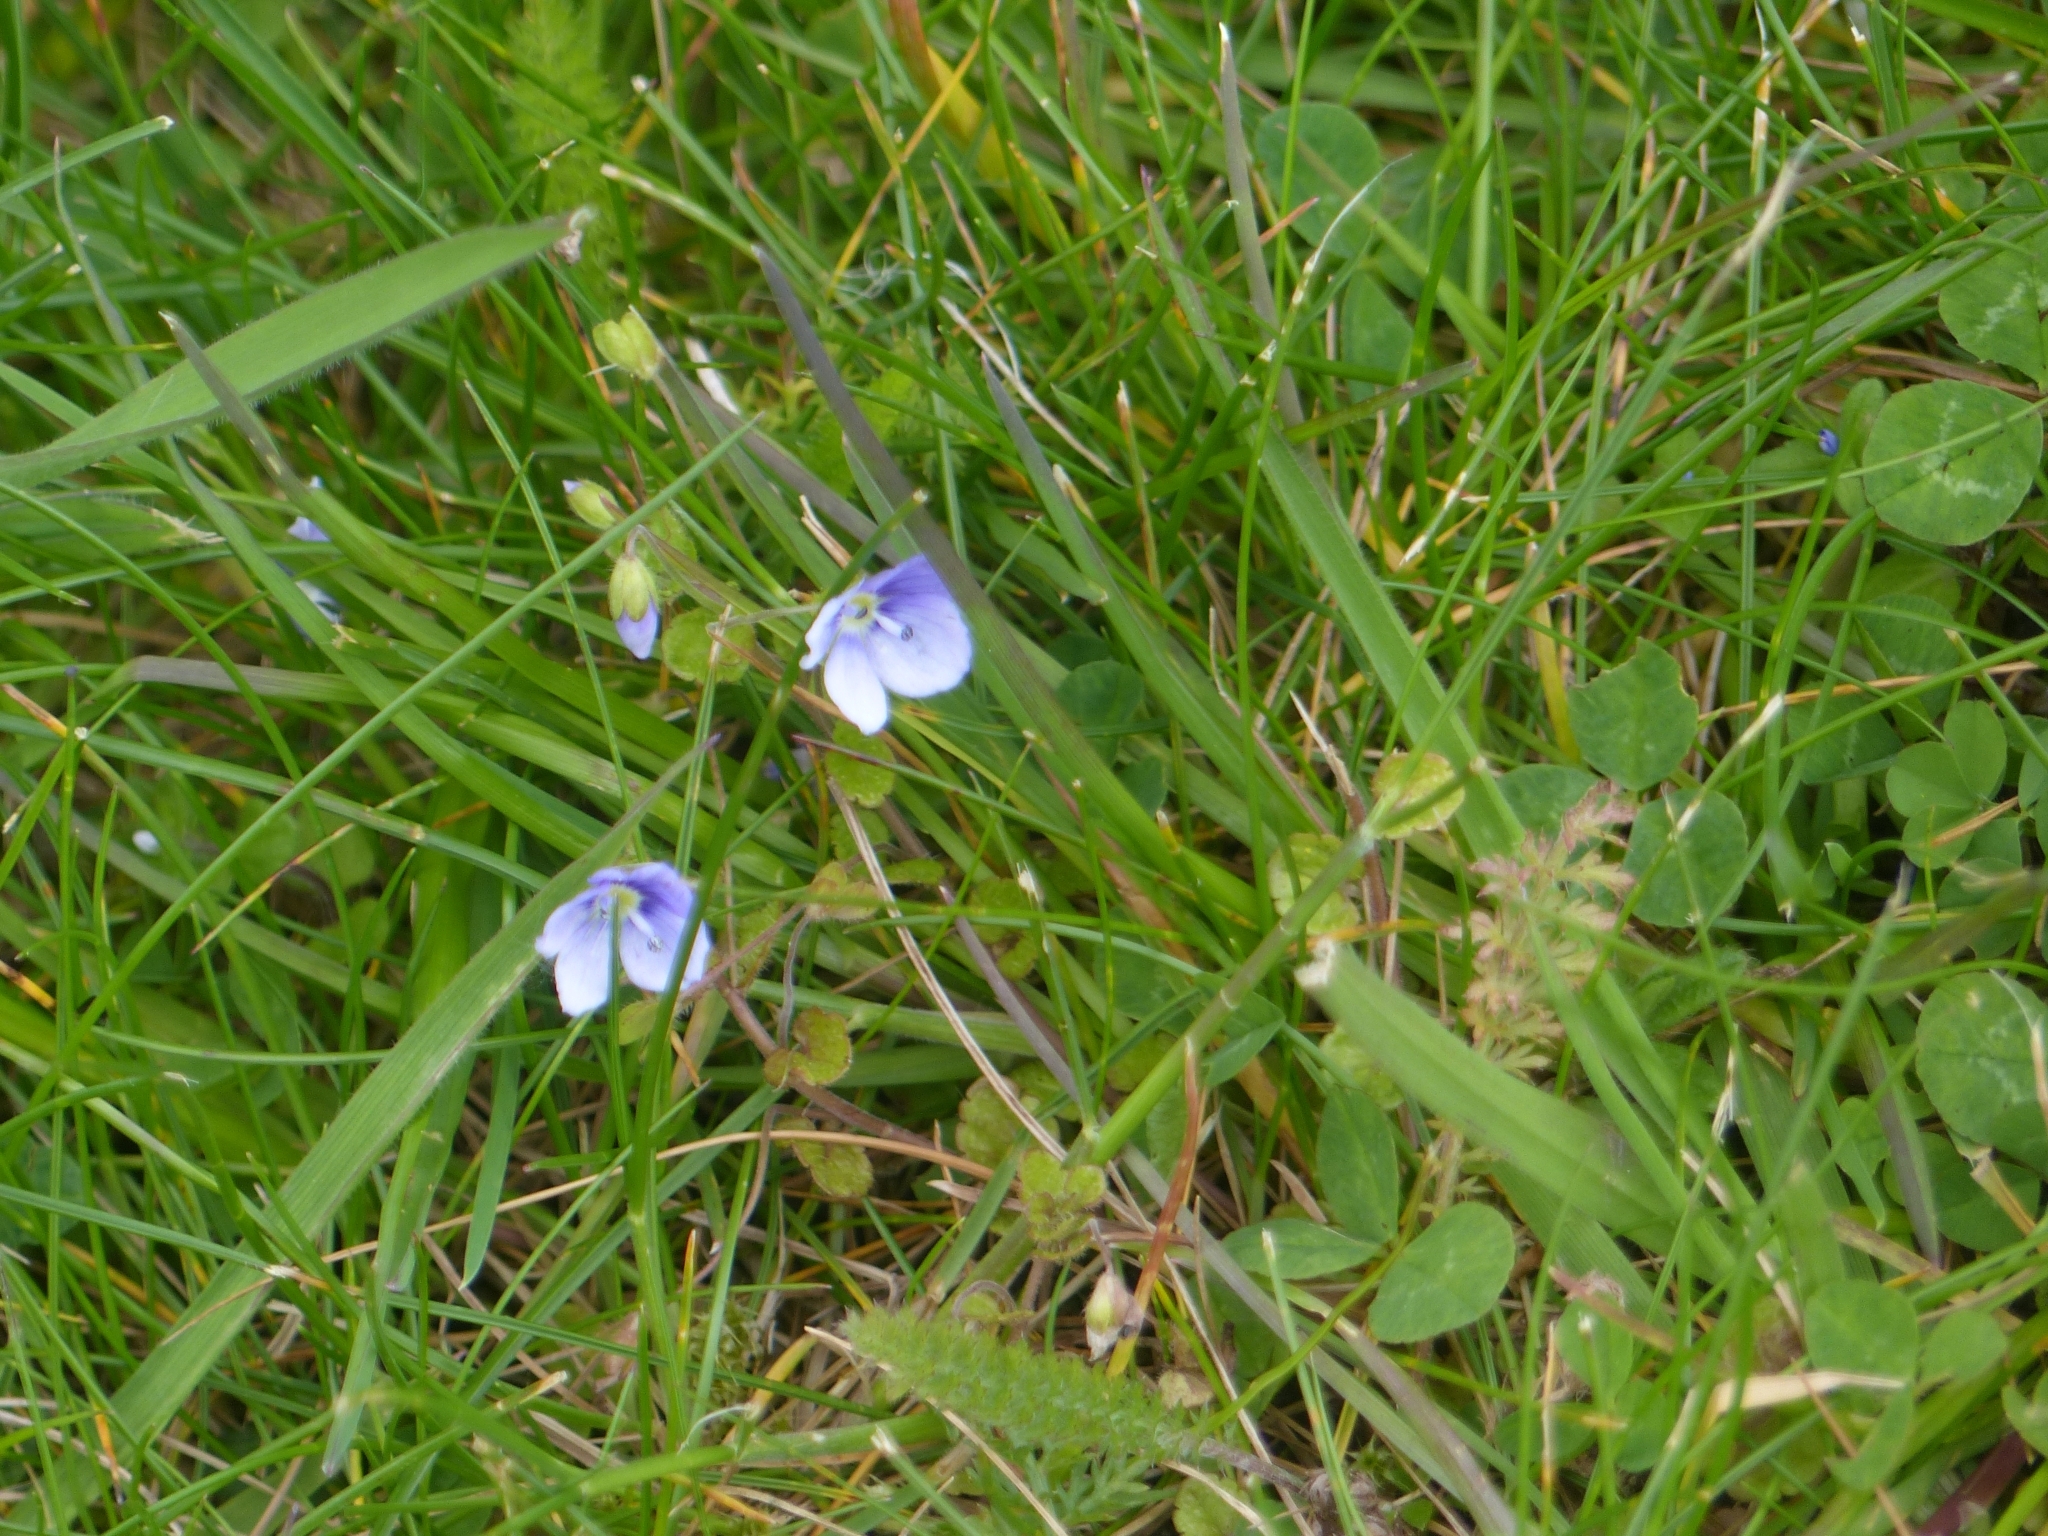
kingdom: Plantae
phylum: Tracheophyta
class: Magnoliopsida
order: Lamiales
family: Plantaginaceae
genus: Veronica
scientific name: Veronica filiformis
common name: Slender speedwell
